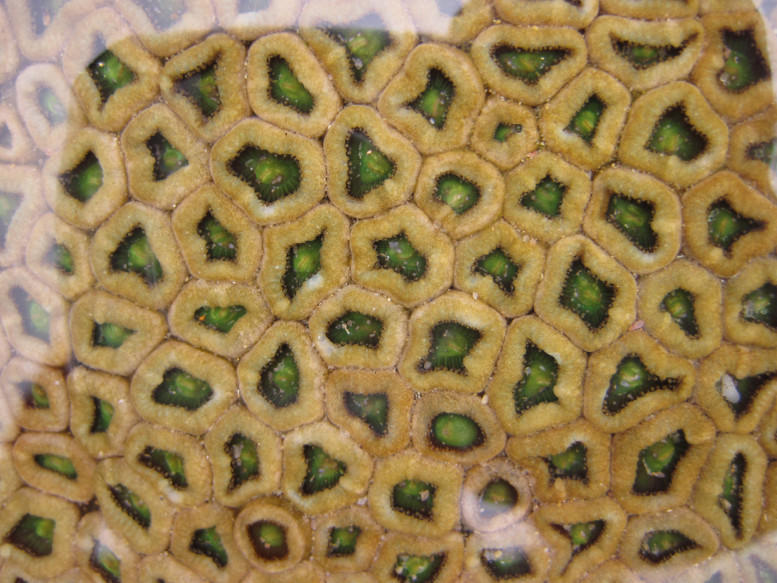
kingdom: Animalia
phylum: Cnidaria
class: Anthozoa
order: Zoantharia
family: Sphenopidae
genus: Palythoa
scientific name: Palythoa mutuki
